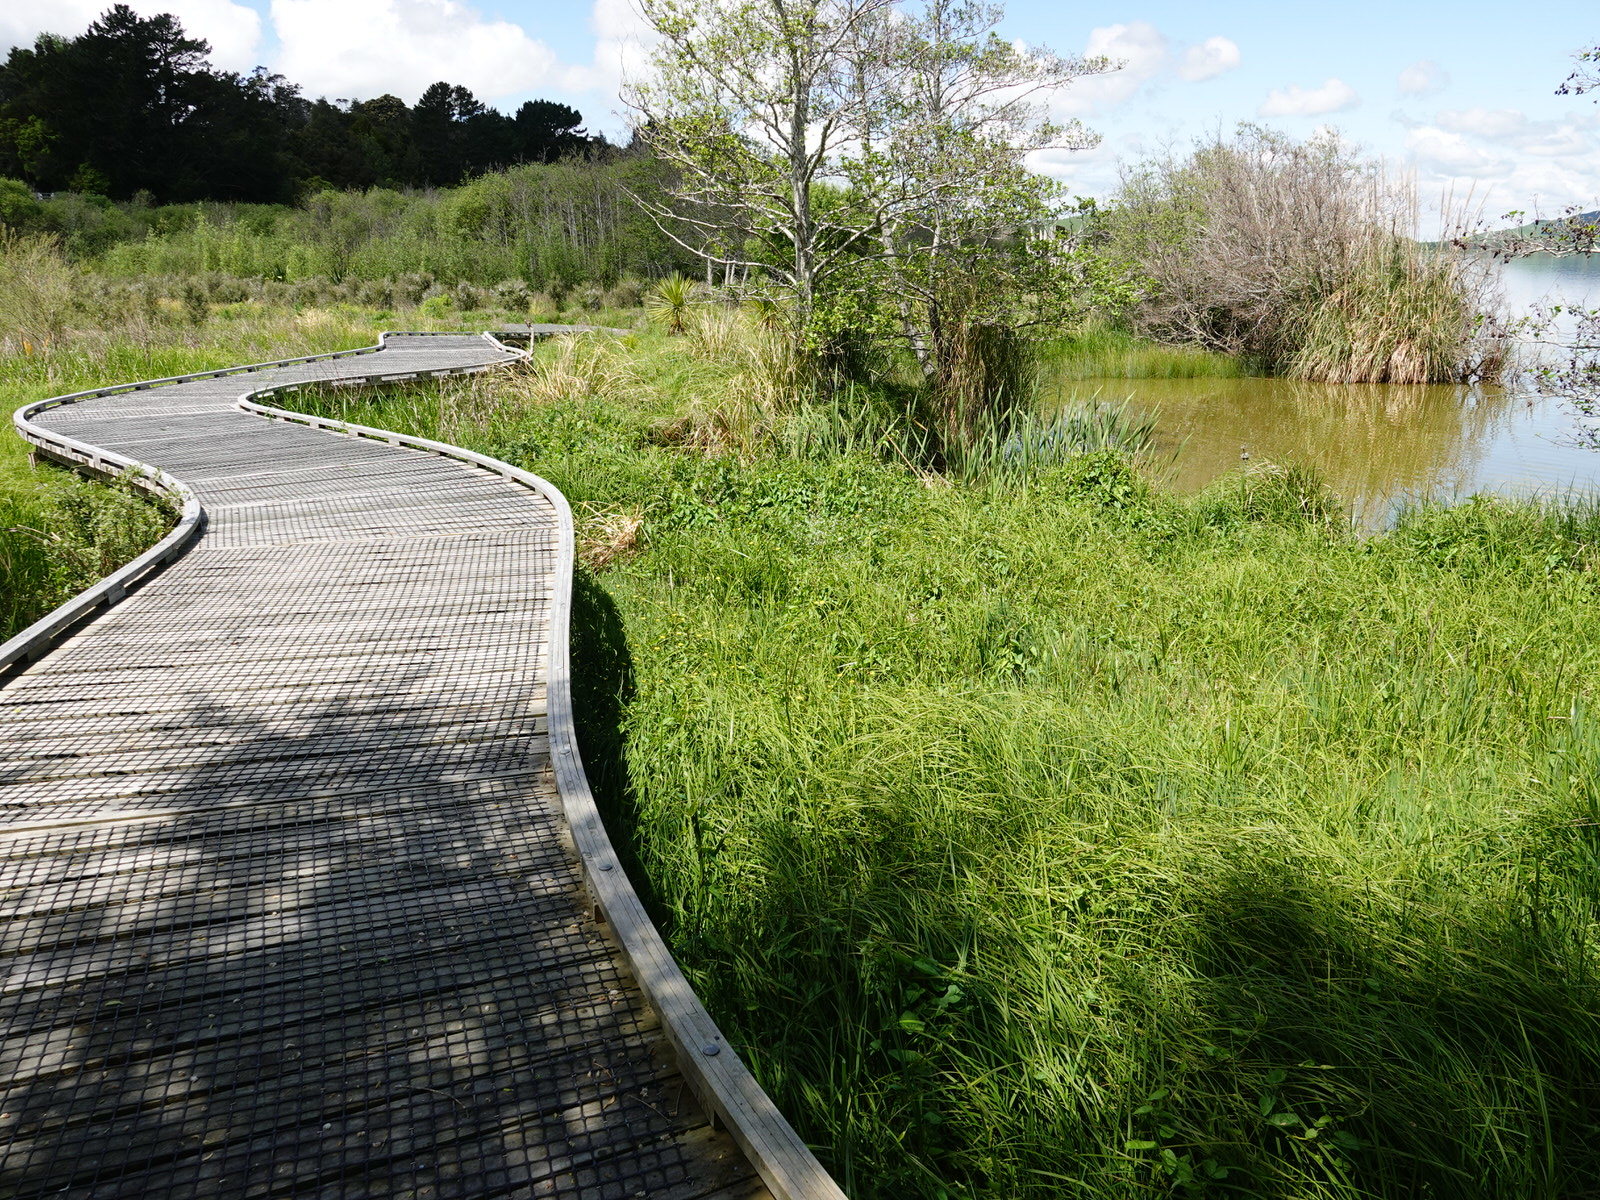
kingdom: Animalia
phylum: Arthropoda
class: Arachnida
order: Araneae
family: Pisauridae
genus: Dolomedes
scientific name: Dolomedes minor
